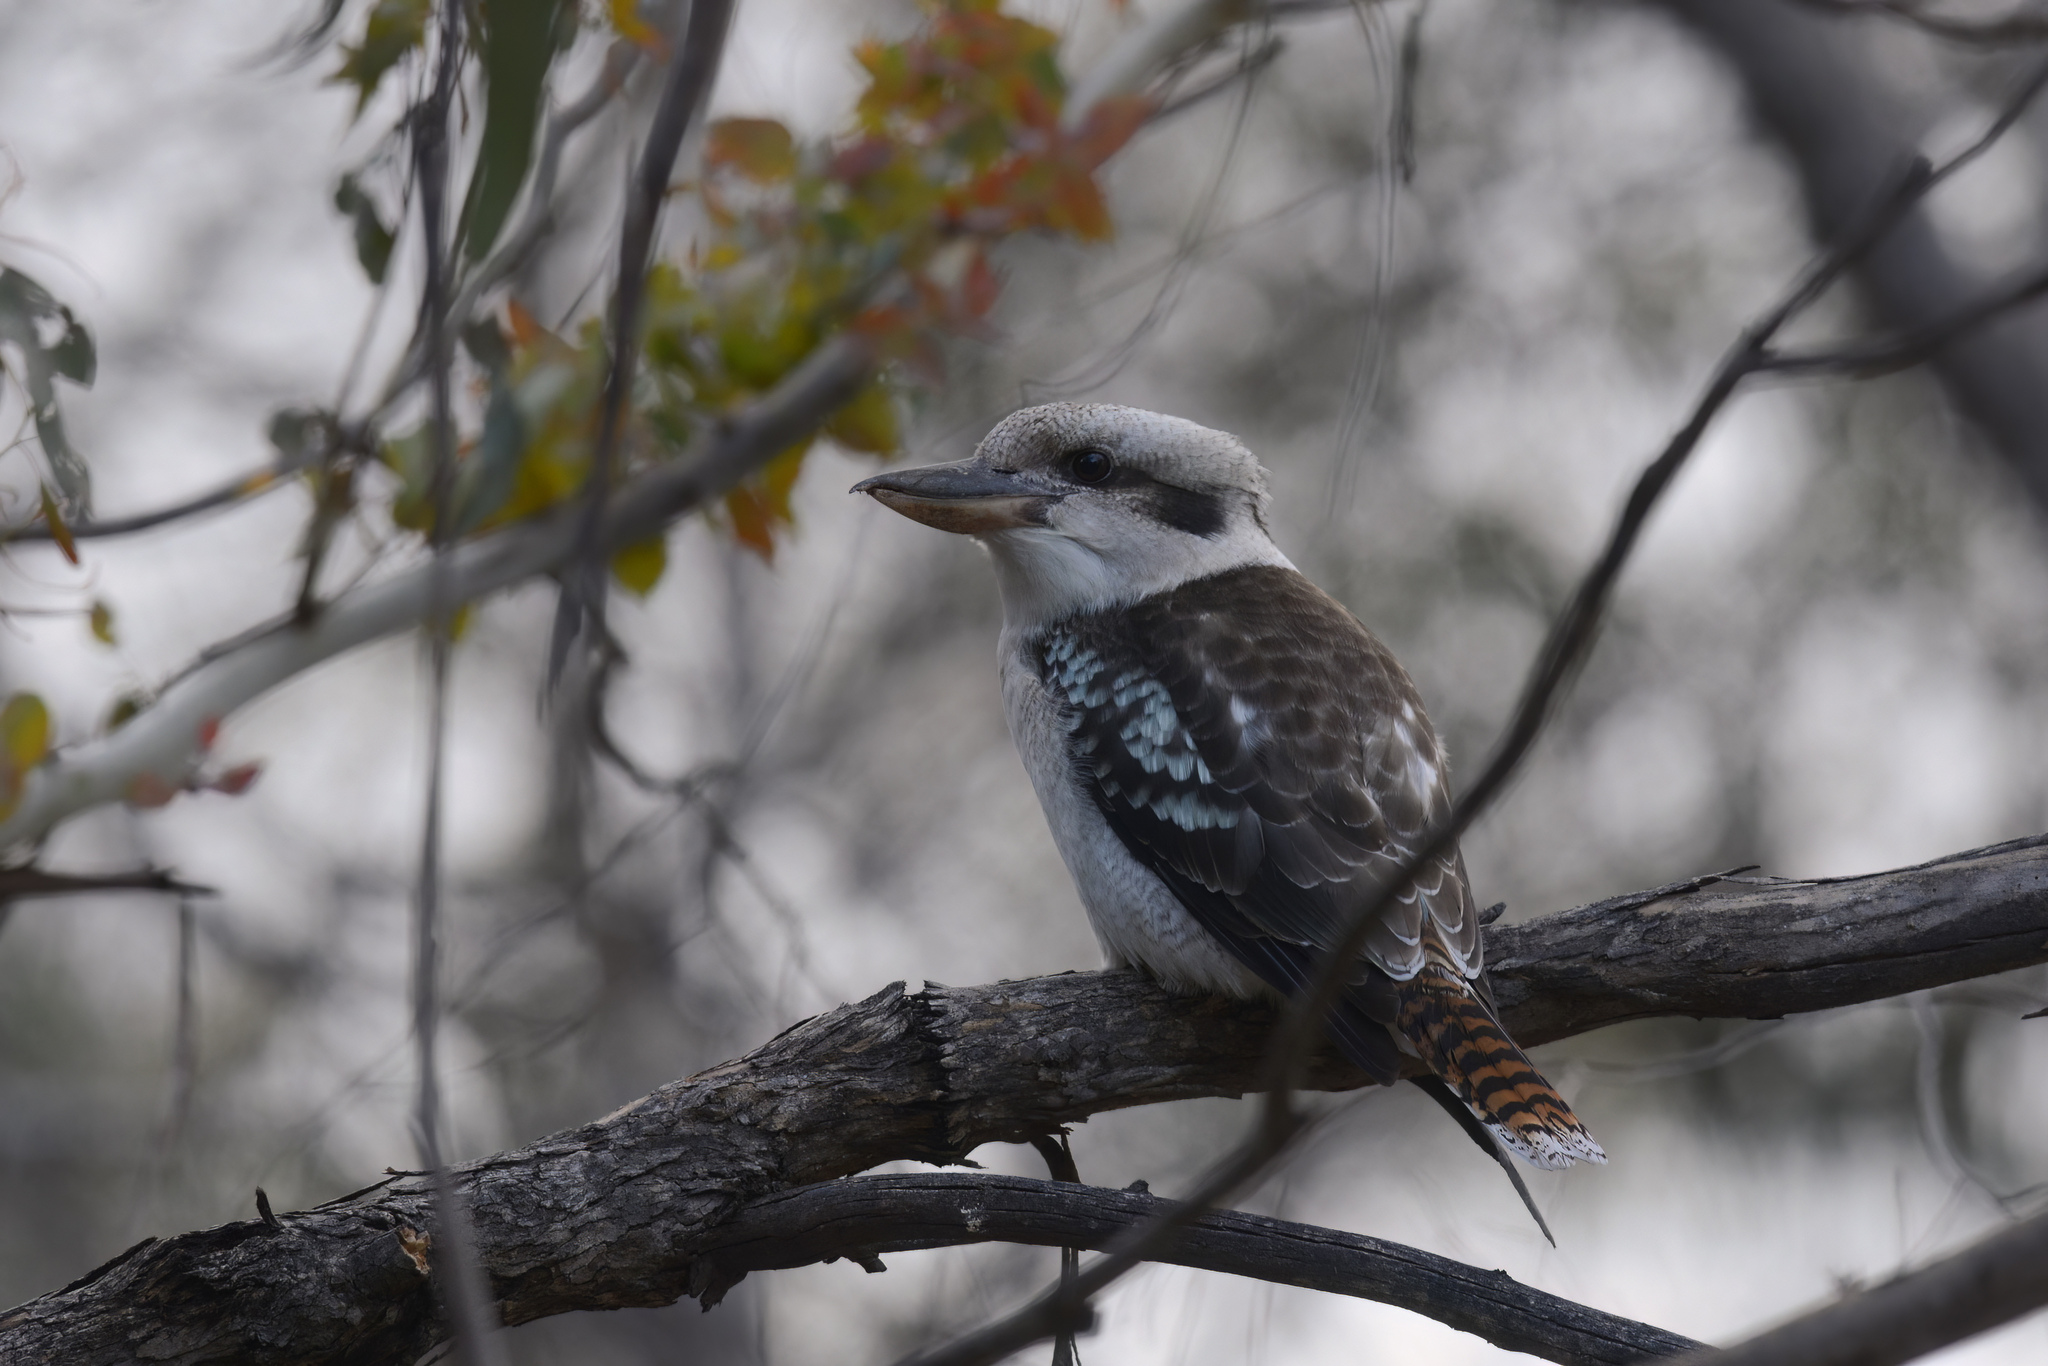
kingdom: Animalia
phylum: Chordata
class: Aves
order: Coraciiformes
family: Alcedinidae
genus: Dacelo
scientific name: Dacelo novaeguineae
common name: Laughing kookaburra
